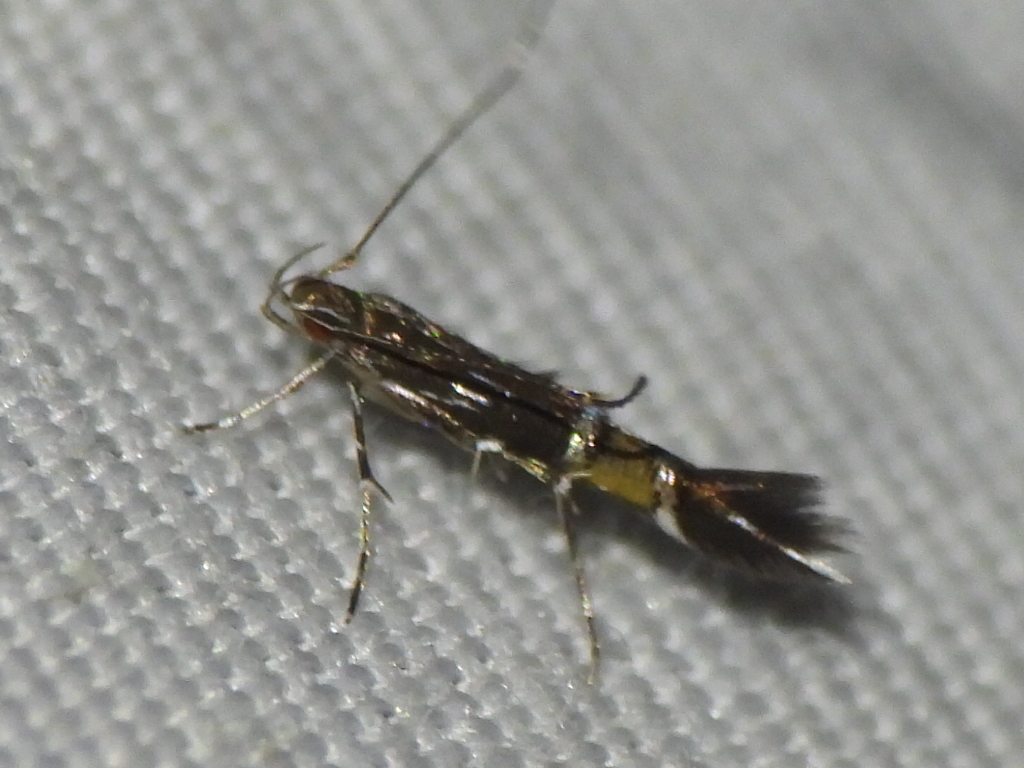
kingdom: Animalia
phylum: Arthropoda
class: Insecta
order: Lepidoptera
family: Cosmopterigidae
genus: Cosmopterix
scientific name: Cosmopterix pulchrimella
